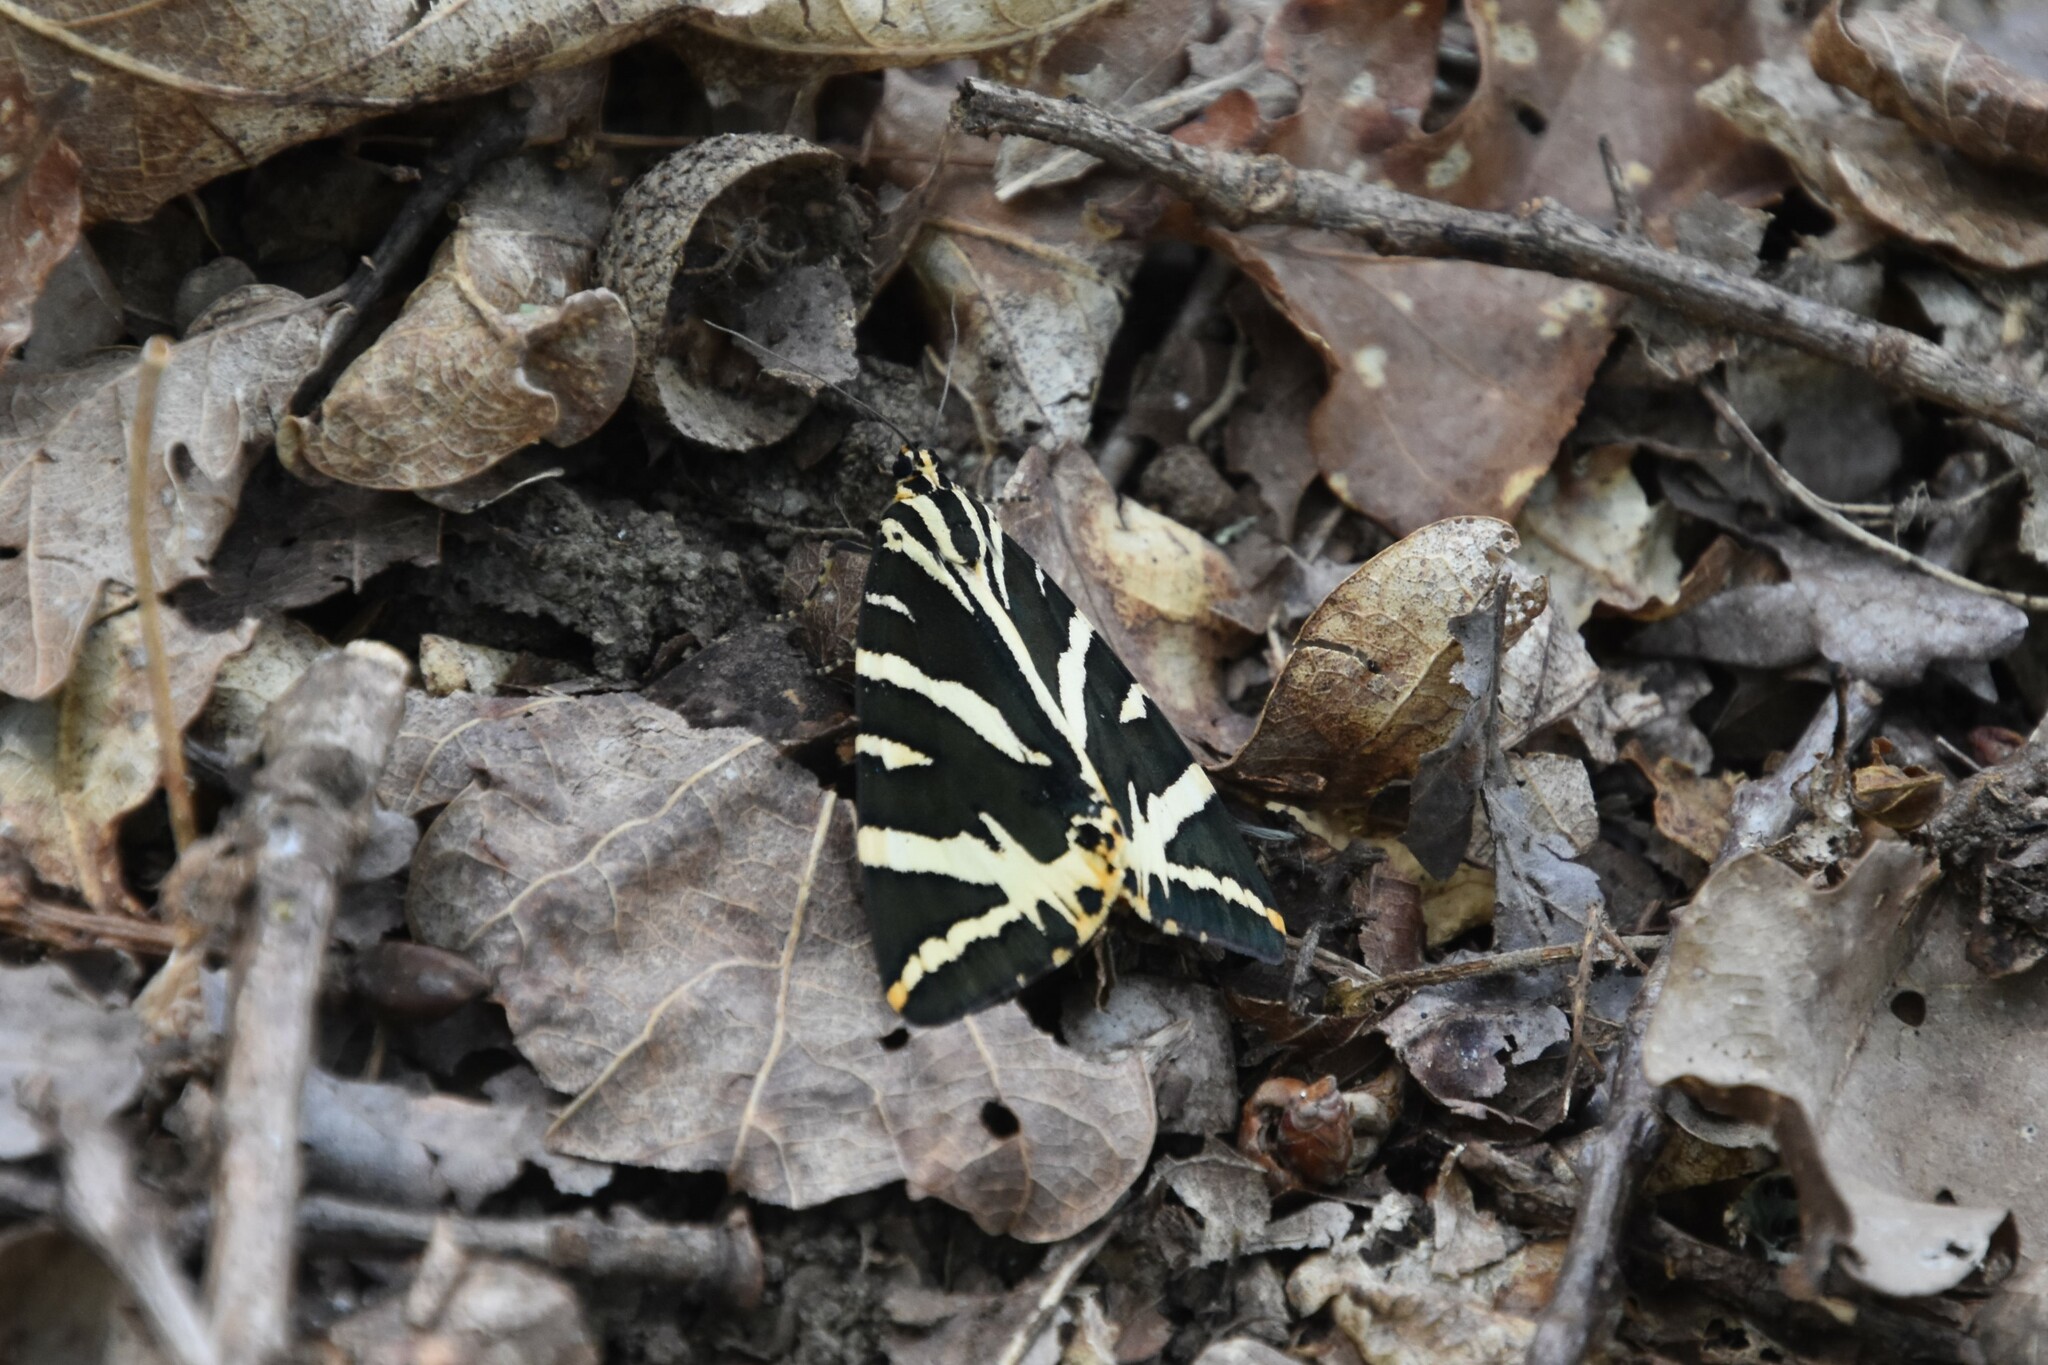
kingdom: Animalia
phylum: Arthropoda
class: Insecta
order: Lepidoptera
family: Erebidae
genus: Euplagia
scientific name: Euplagia quadripunctaria
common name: Jersey tiger
